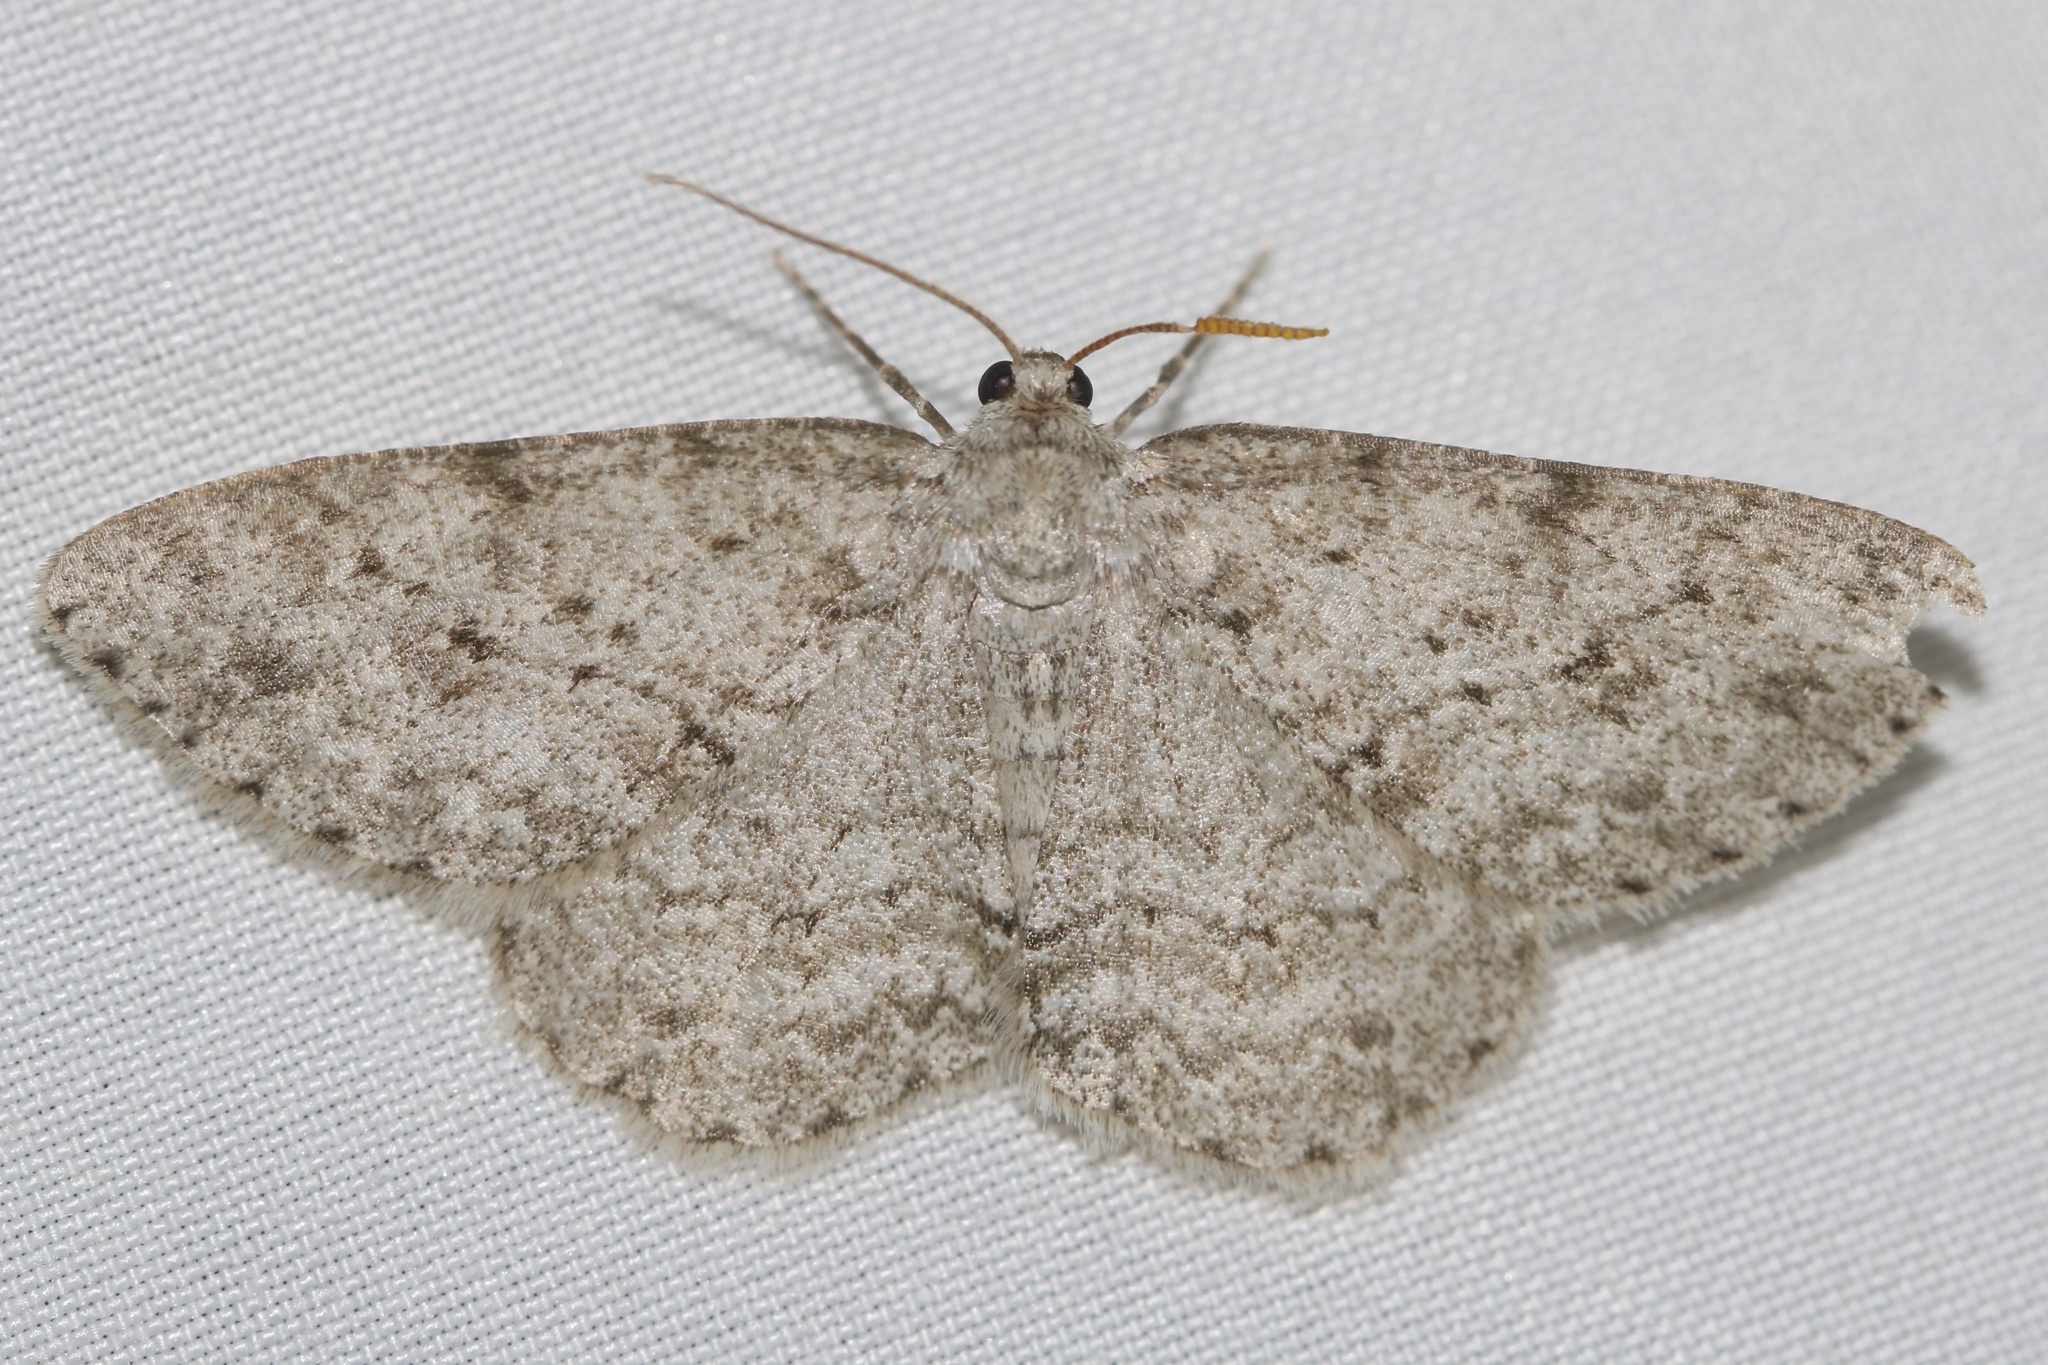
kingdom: Animalia
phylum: Arthropoda
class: Insecta
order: Lepidoptera
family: Geometridae
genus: Ectropis
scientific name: Ectropis crepuscularia
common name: Engrailed
